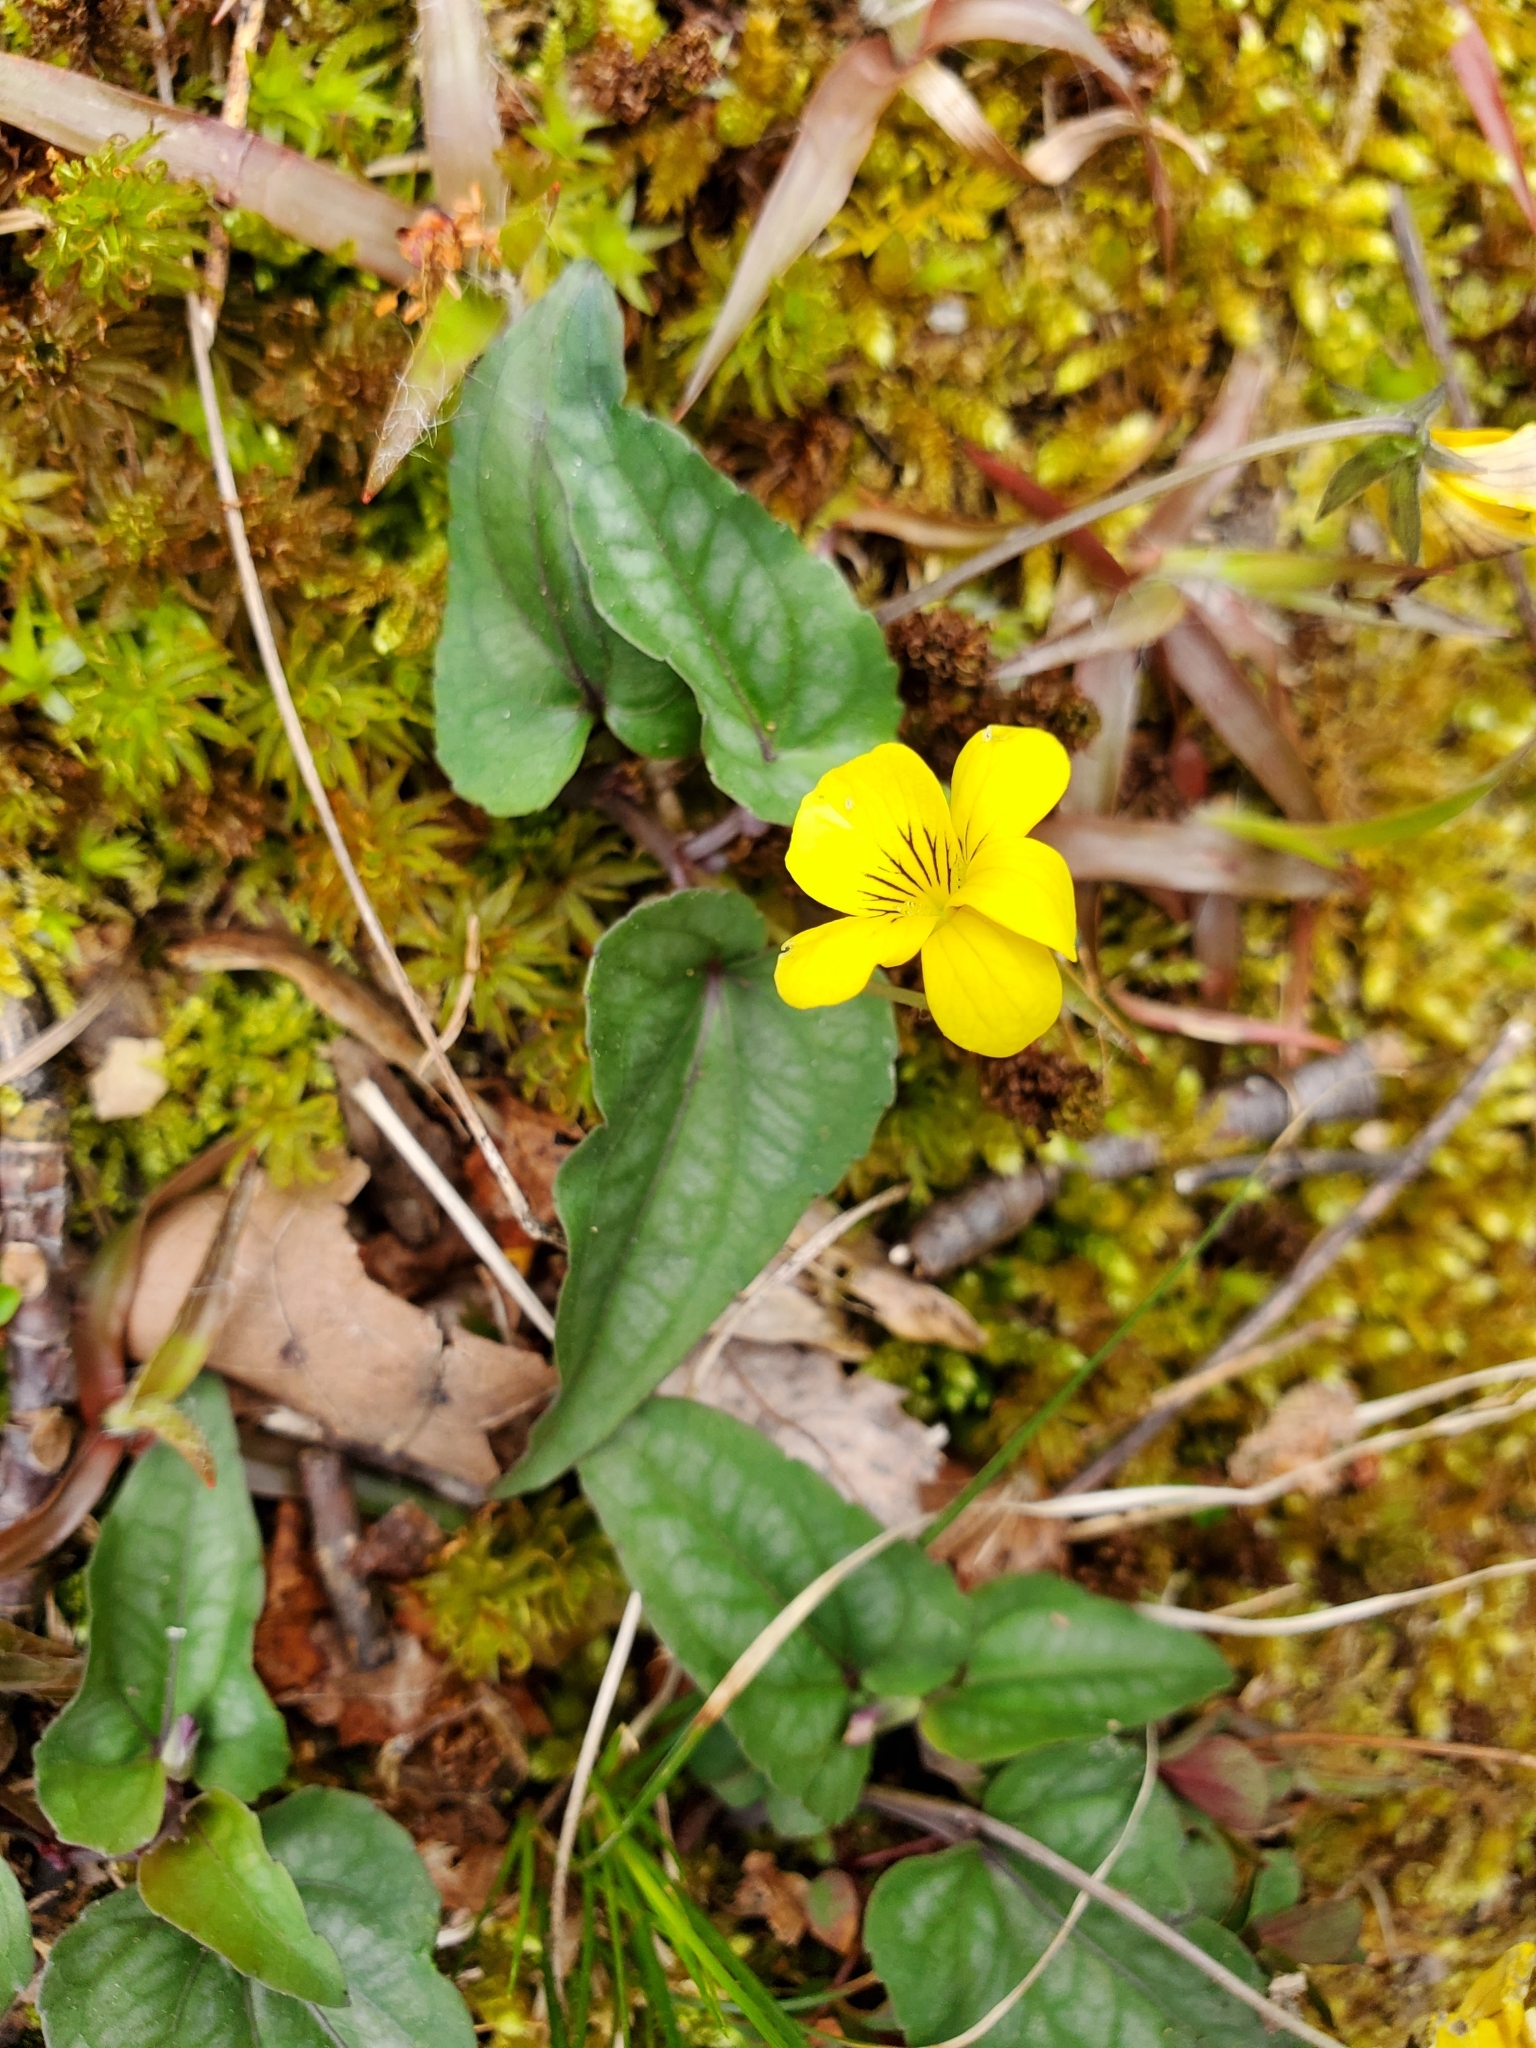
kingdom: Plantae
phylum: Tracheophyta
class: Magnoliopsida
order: Malpighiales
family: Violaceae
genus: Viola
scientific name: Viola hastata
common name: Spear-leaf violet
